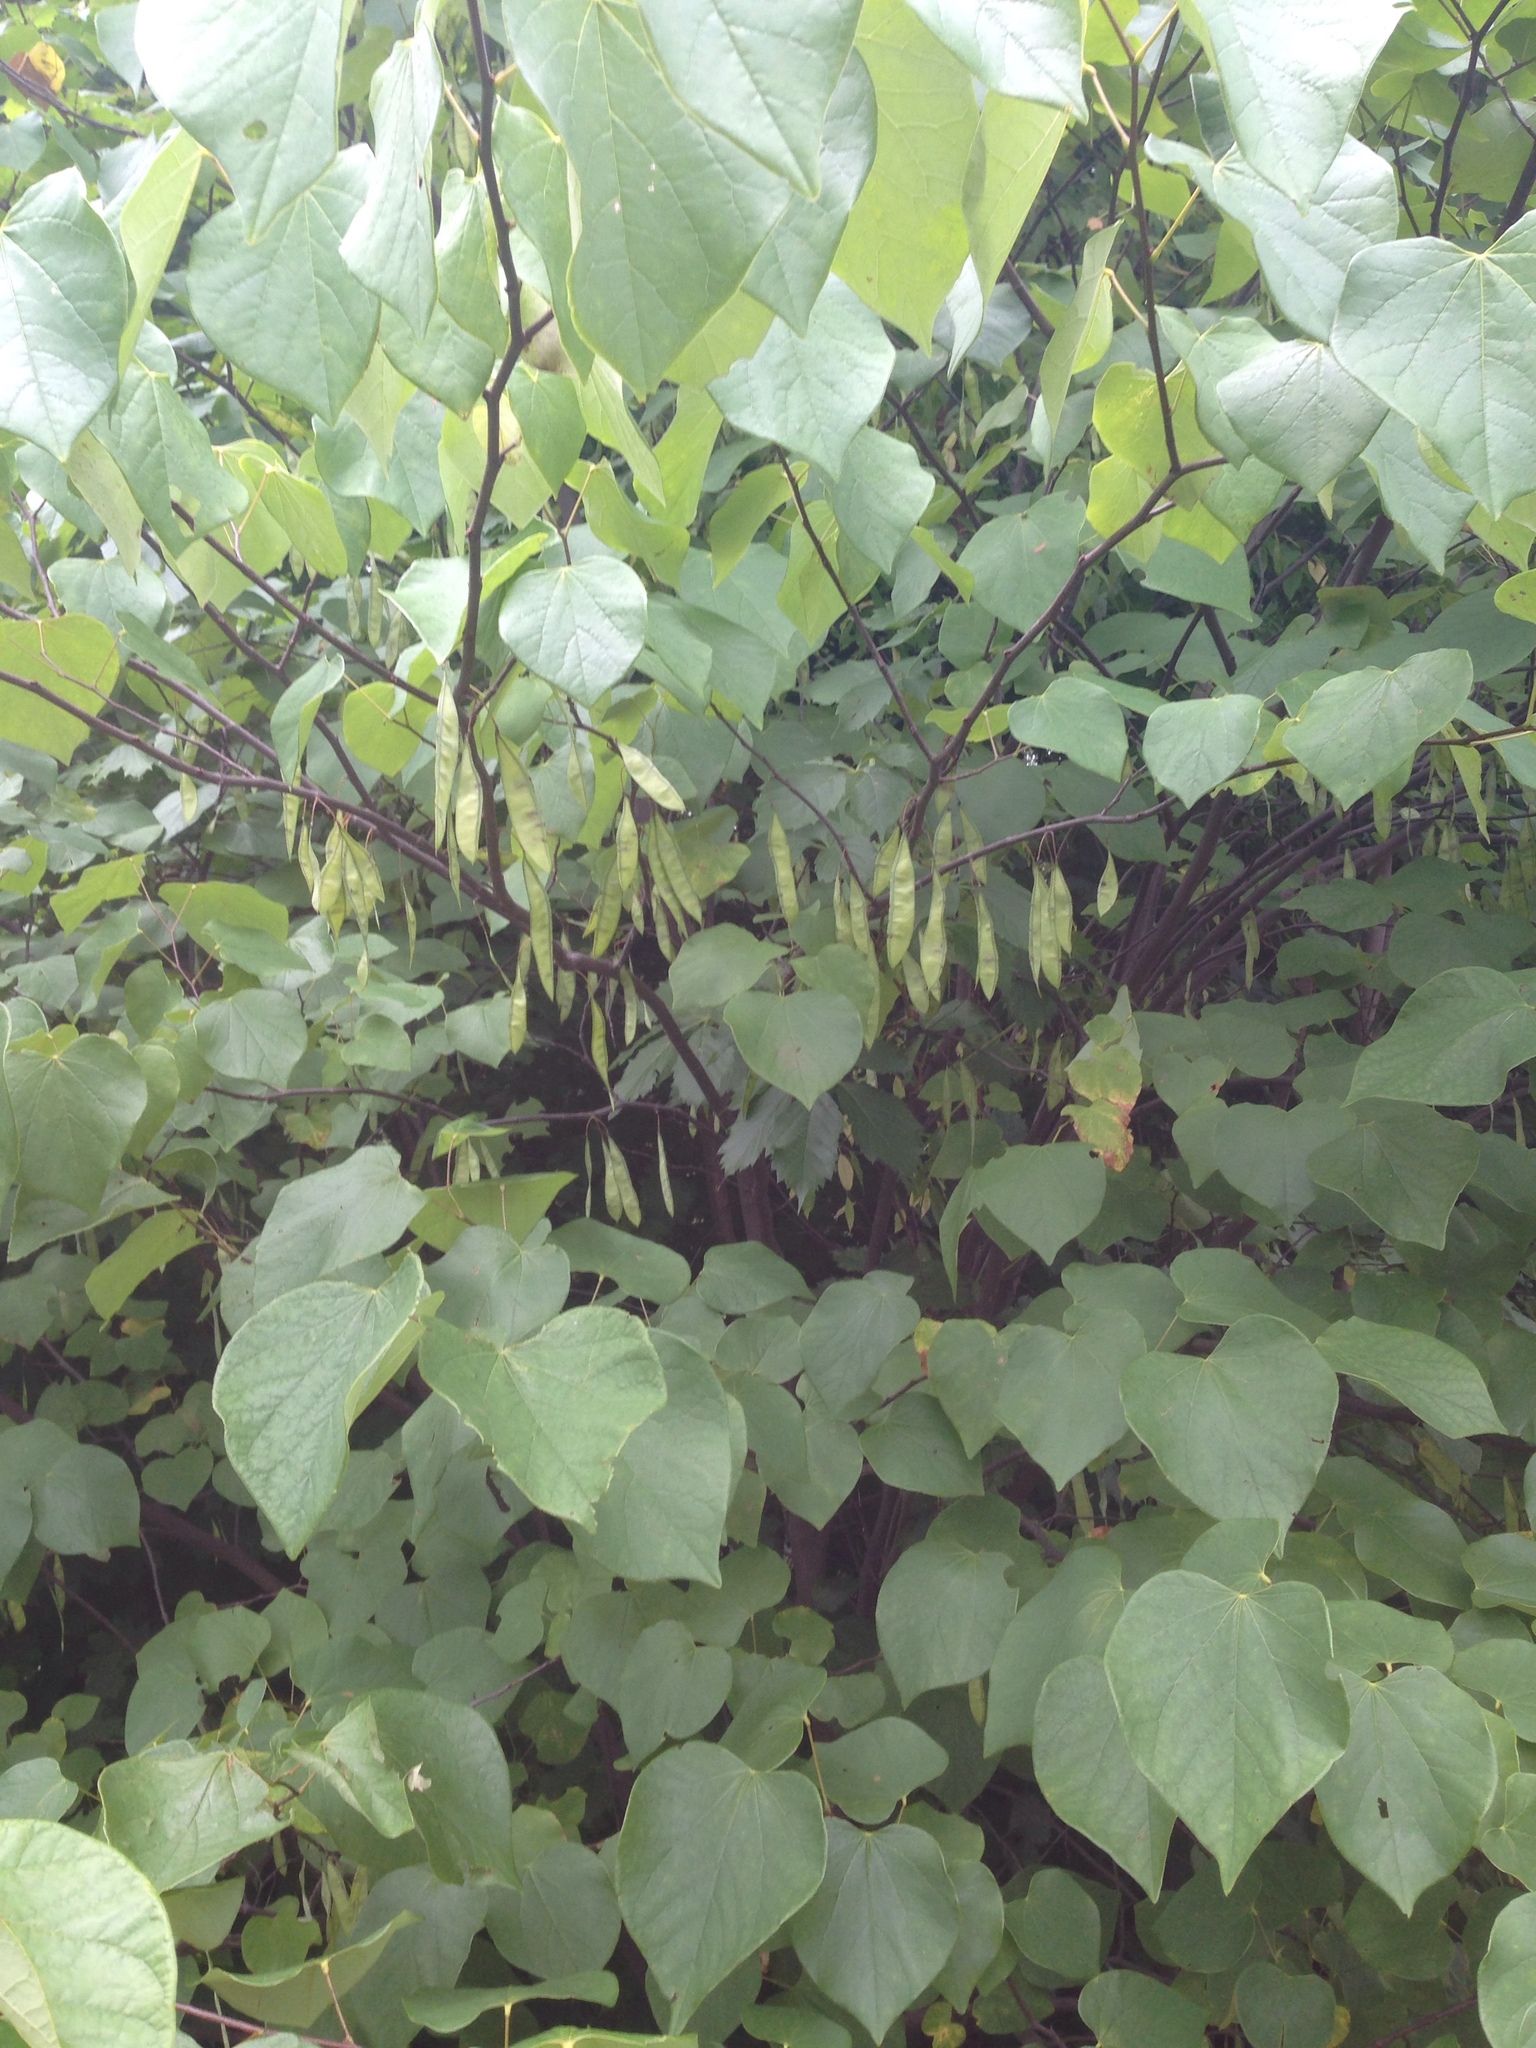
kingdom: Plantae
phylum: Tracheophyta
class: Magnoliopsida
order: Fabales
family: Fabaceae
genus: Cercis
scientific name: Cercis canadensis
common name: Eastern redbud
